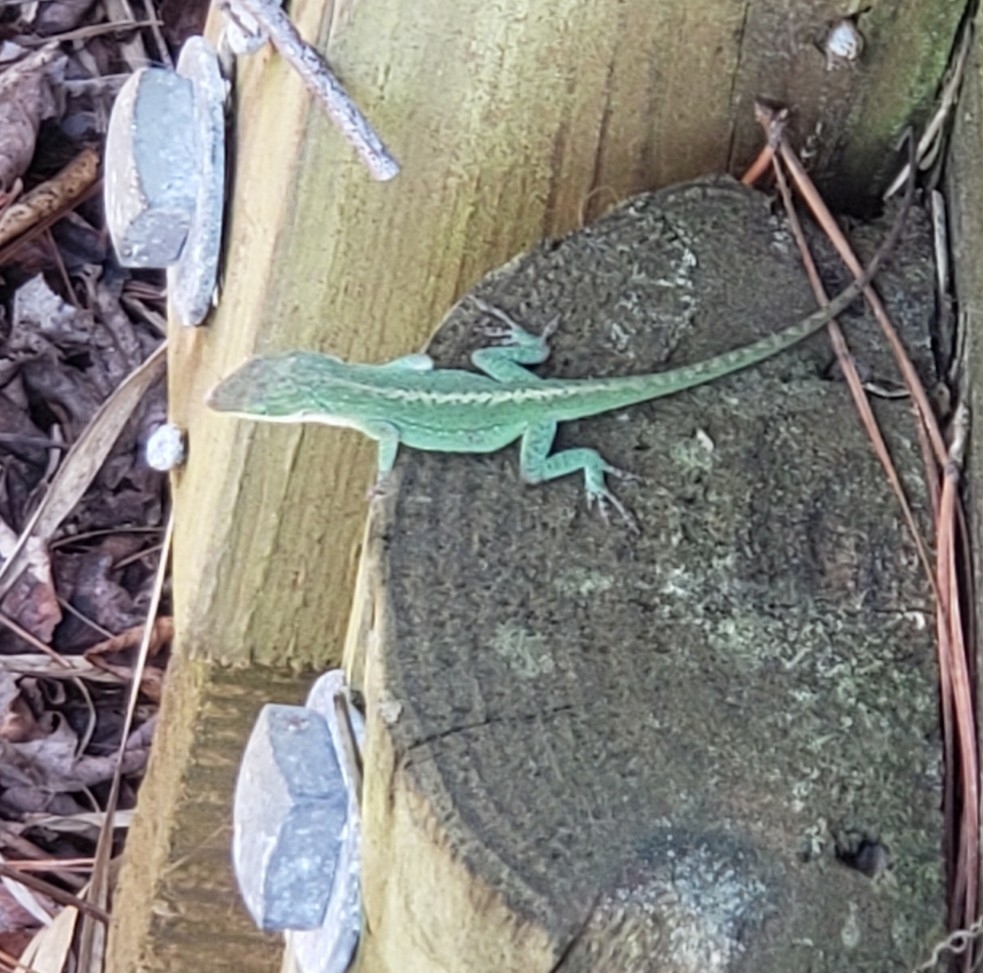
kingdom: Animalia
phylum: Chordata
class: Squamata
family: Dactyloidae
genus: Anolis
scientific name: Anolis carolinensis
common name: Green anole
